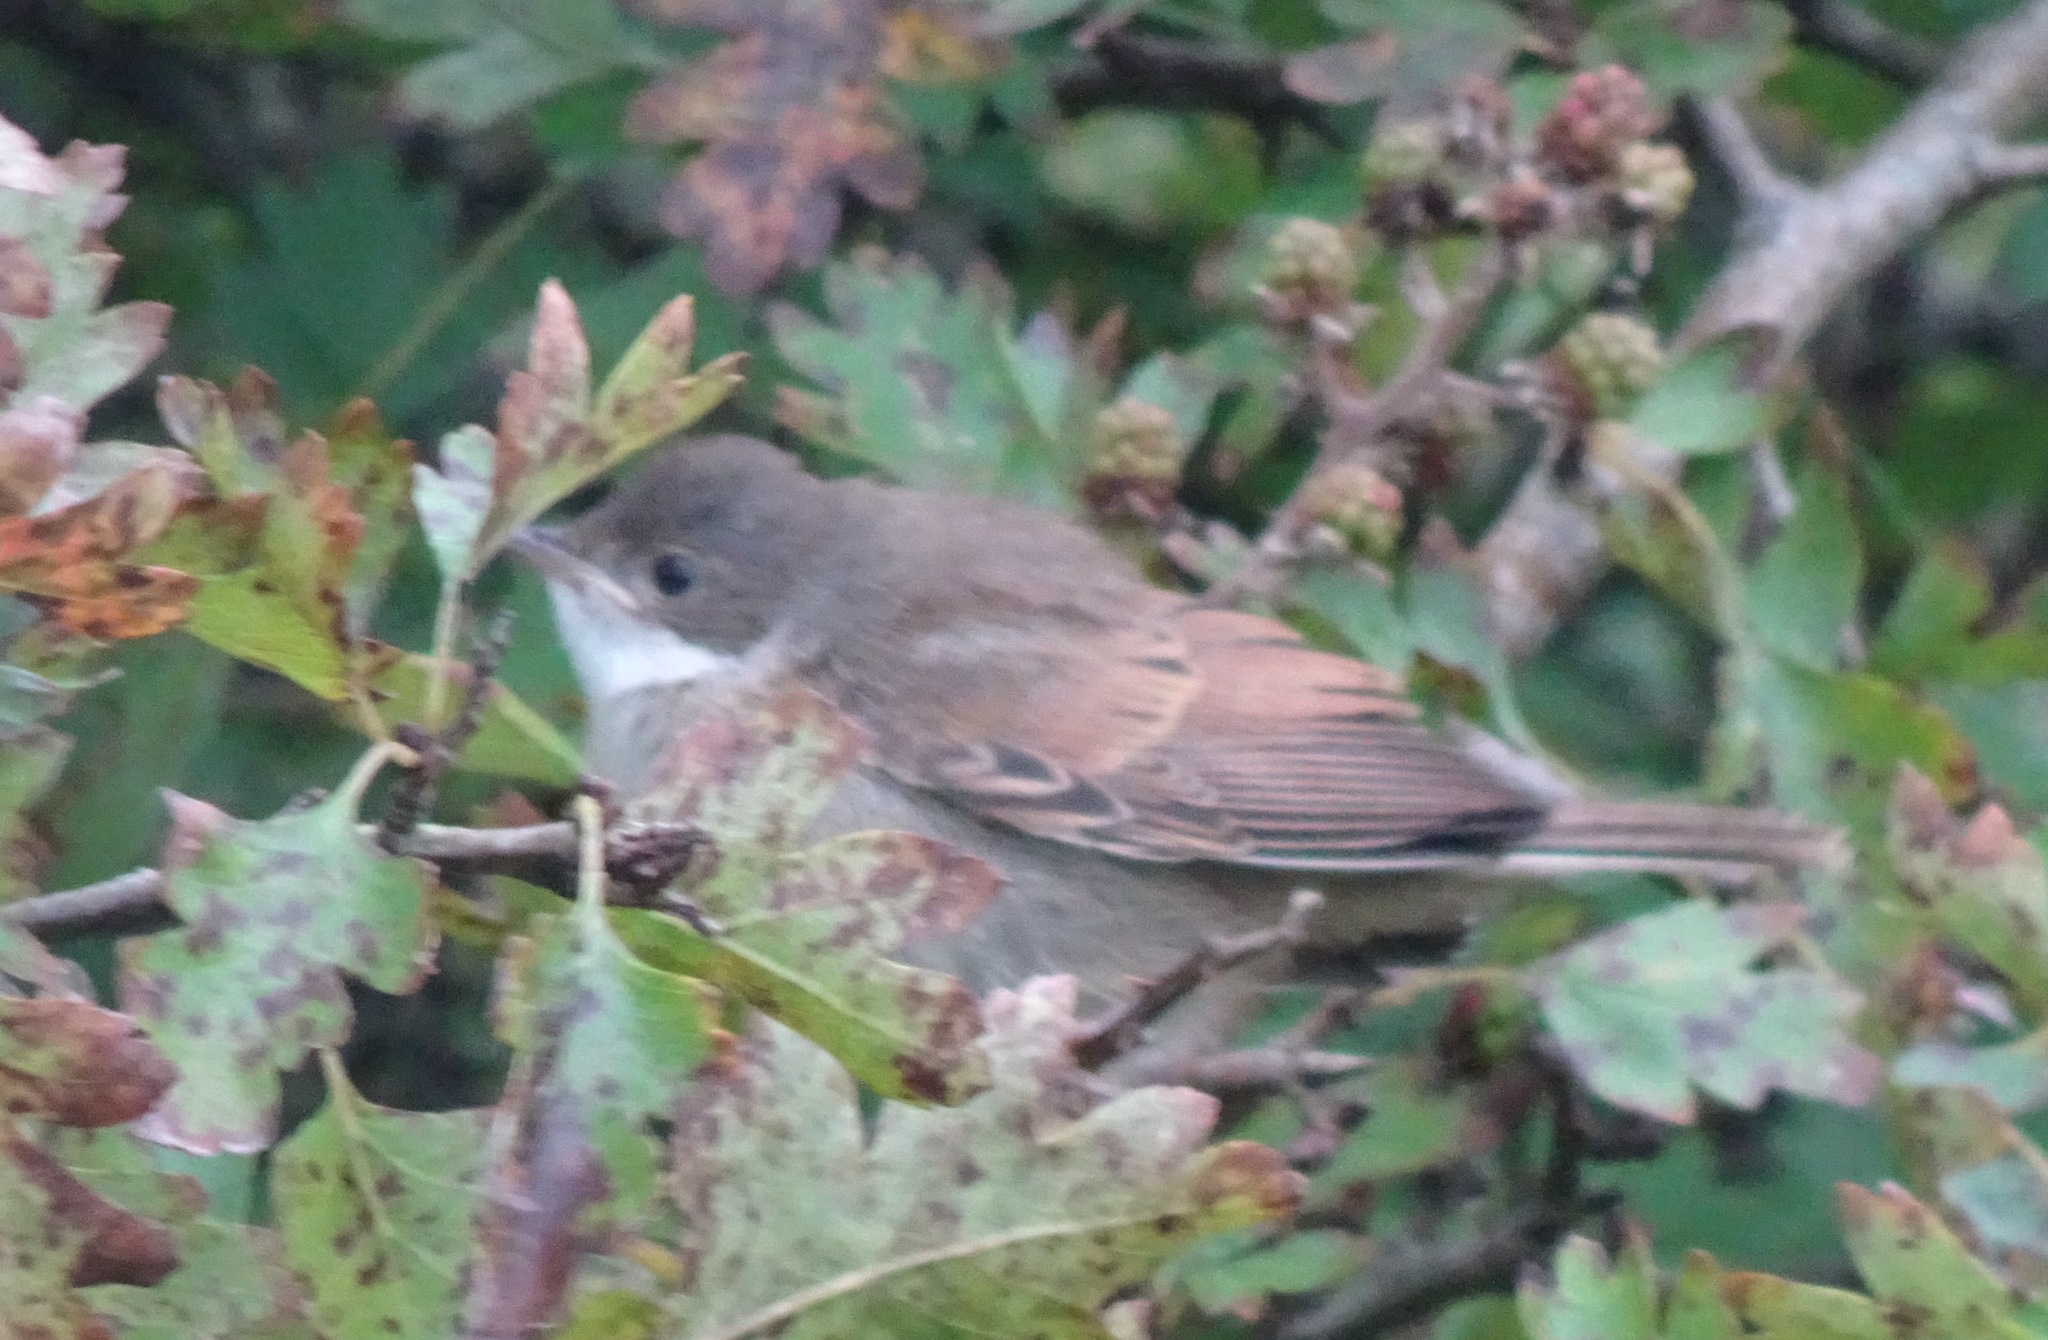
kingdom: Animalia
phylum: Chordata
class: Aves
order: Passeriformes
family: Sylviidae
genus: Sylvia
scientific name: Sylvia communis
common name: Common whitethroat
